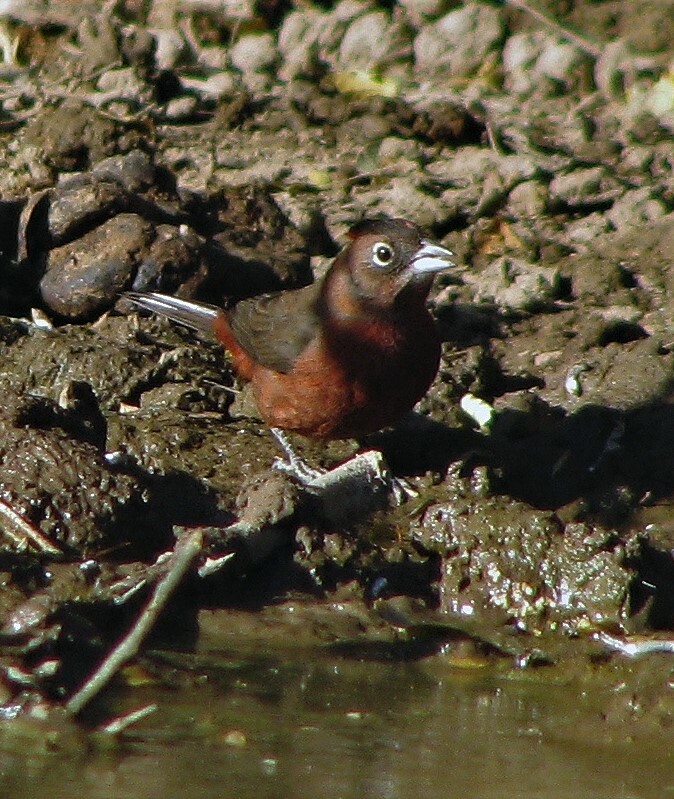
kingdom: Animalia
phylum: Chordata
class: Aves
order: Passeriformes
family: Thraupidae
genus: Coryphospingus
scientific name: Coryphospingus cucullatus
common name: Red pileated finch
